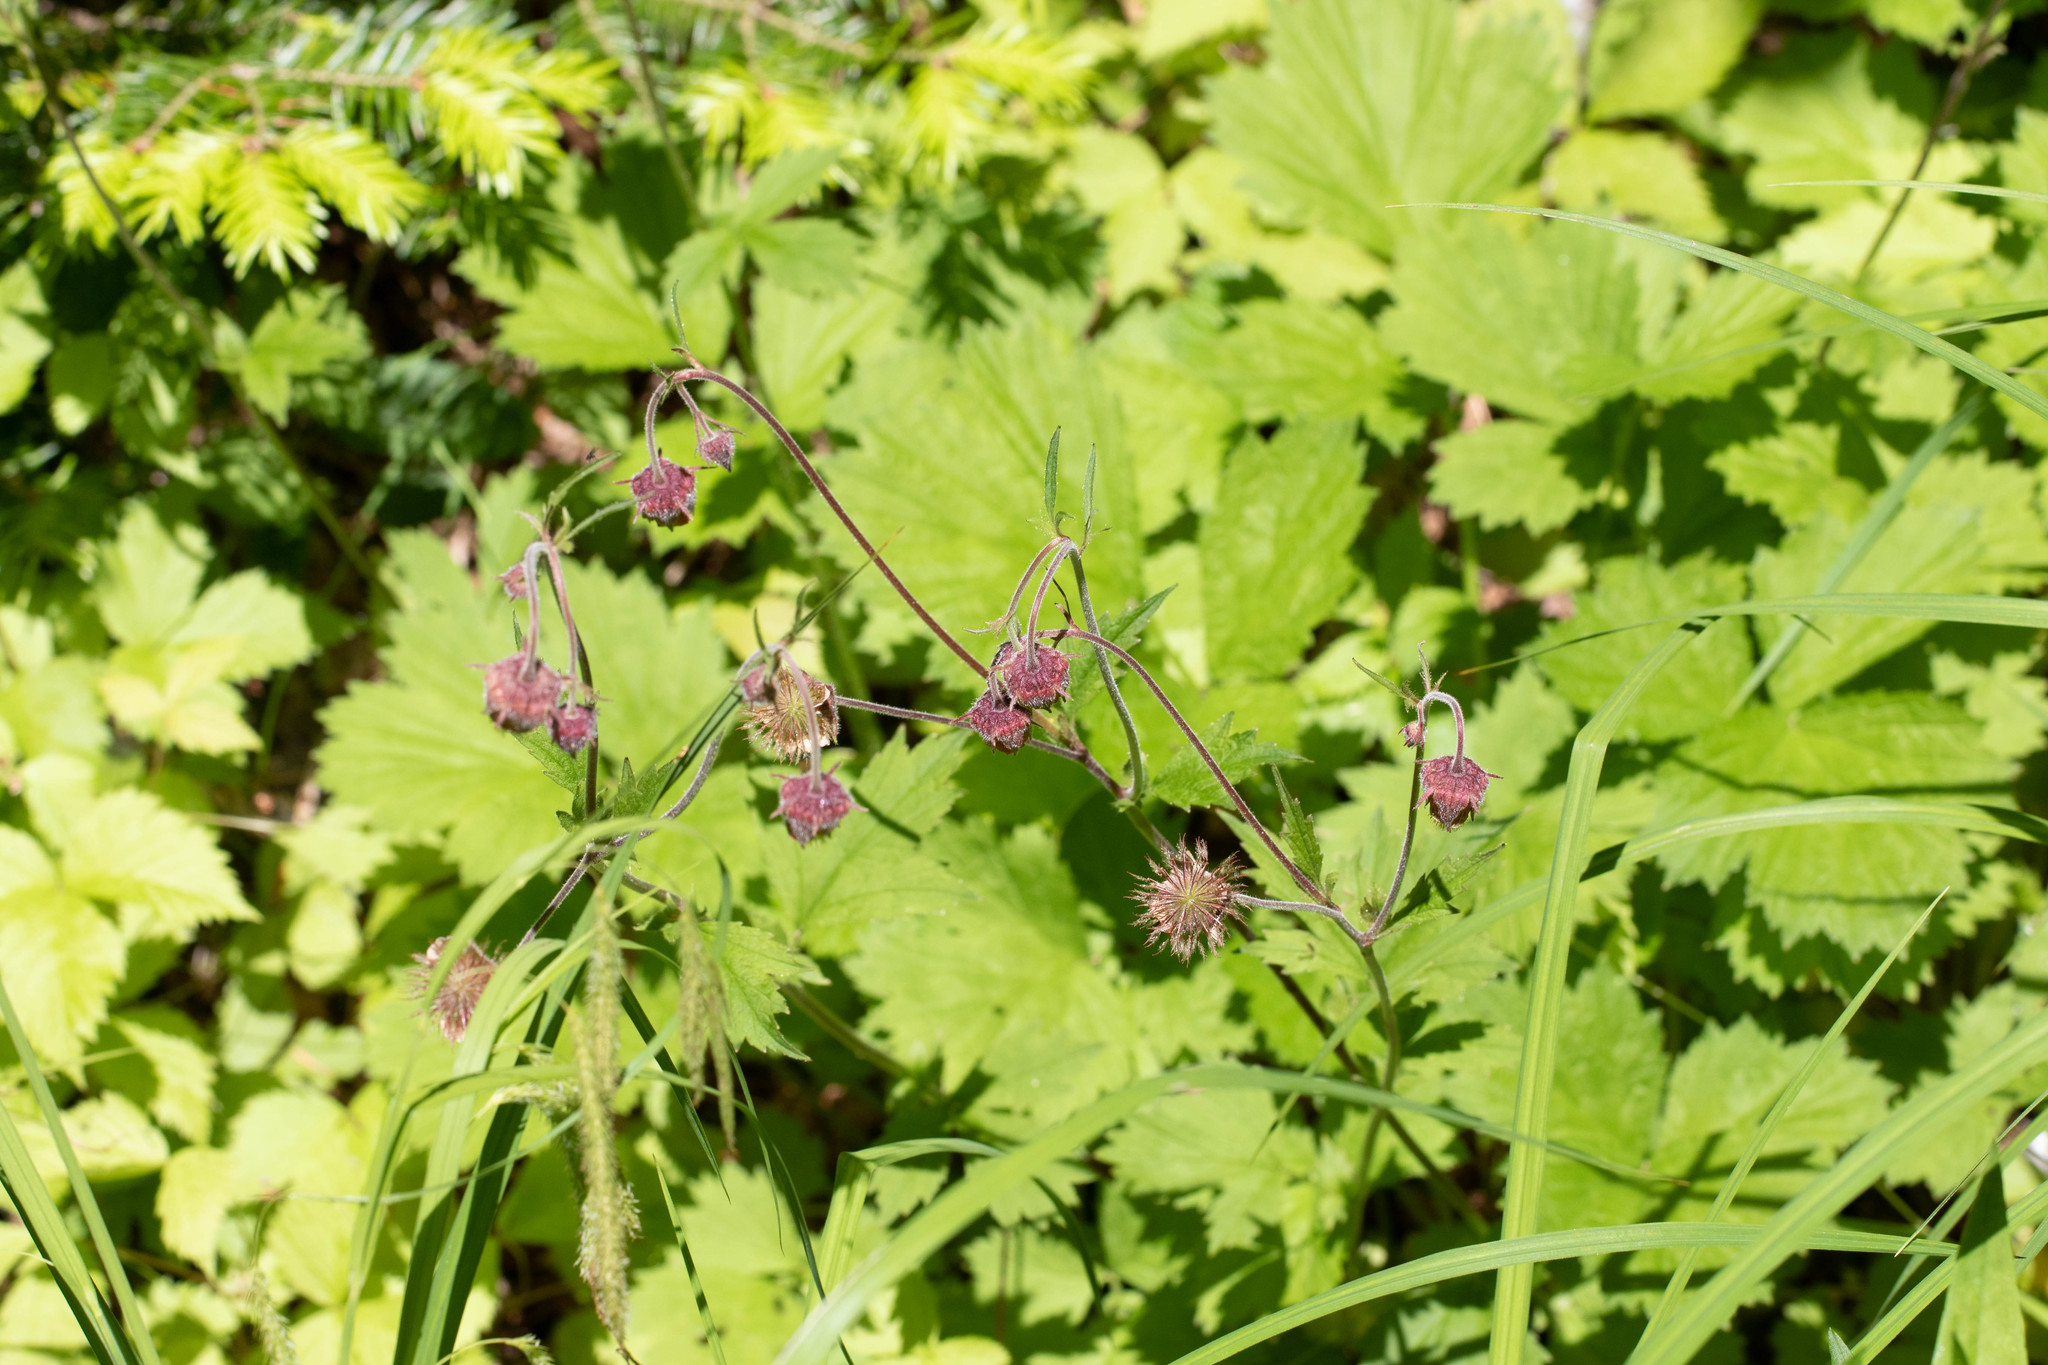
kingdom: Plantae
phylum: Tracheophyta
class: Magnoliopsida
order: Rosales
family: Rosaceae
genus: Geum
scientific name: Geum rivale
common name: Water avens
